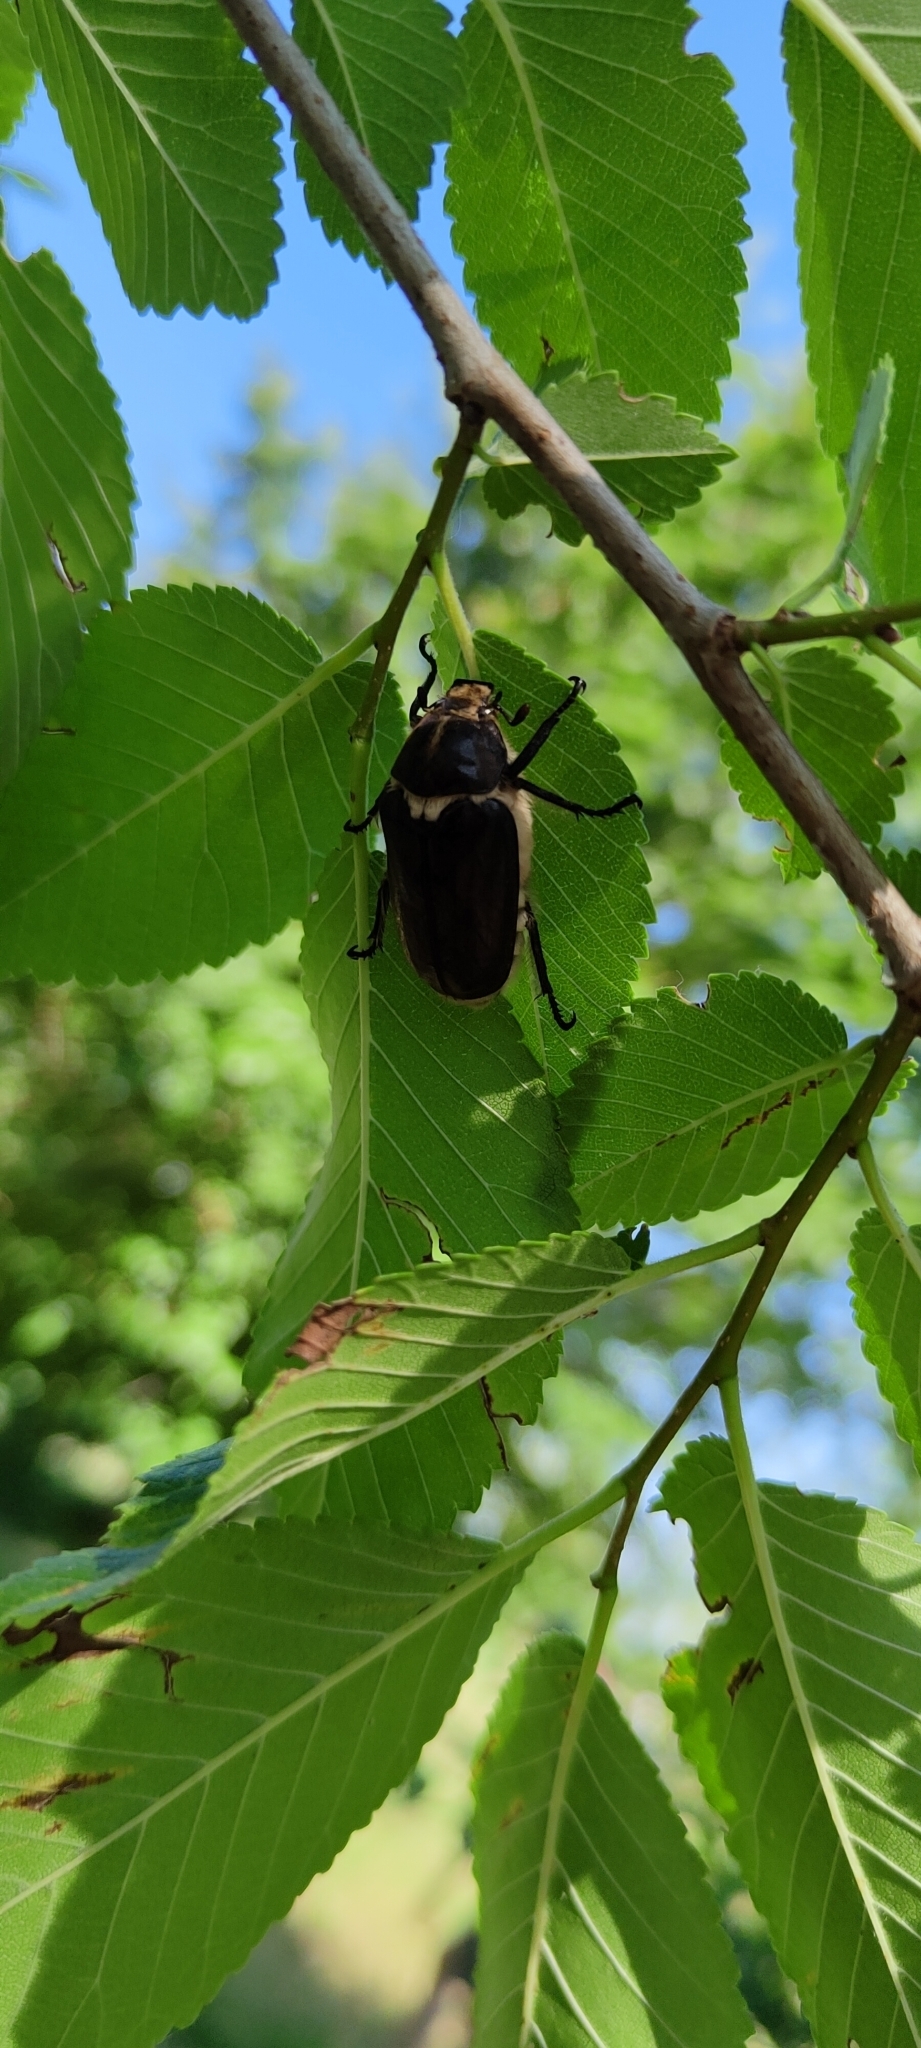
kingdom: Animalia
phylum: Arthropoda
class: Insecta
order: Coleoptera
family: Scarabaeidae
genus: Anoxia
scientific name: Anoxia scutellaris
